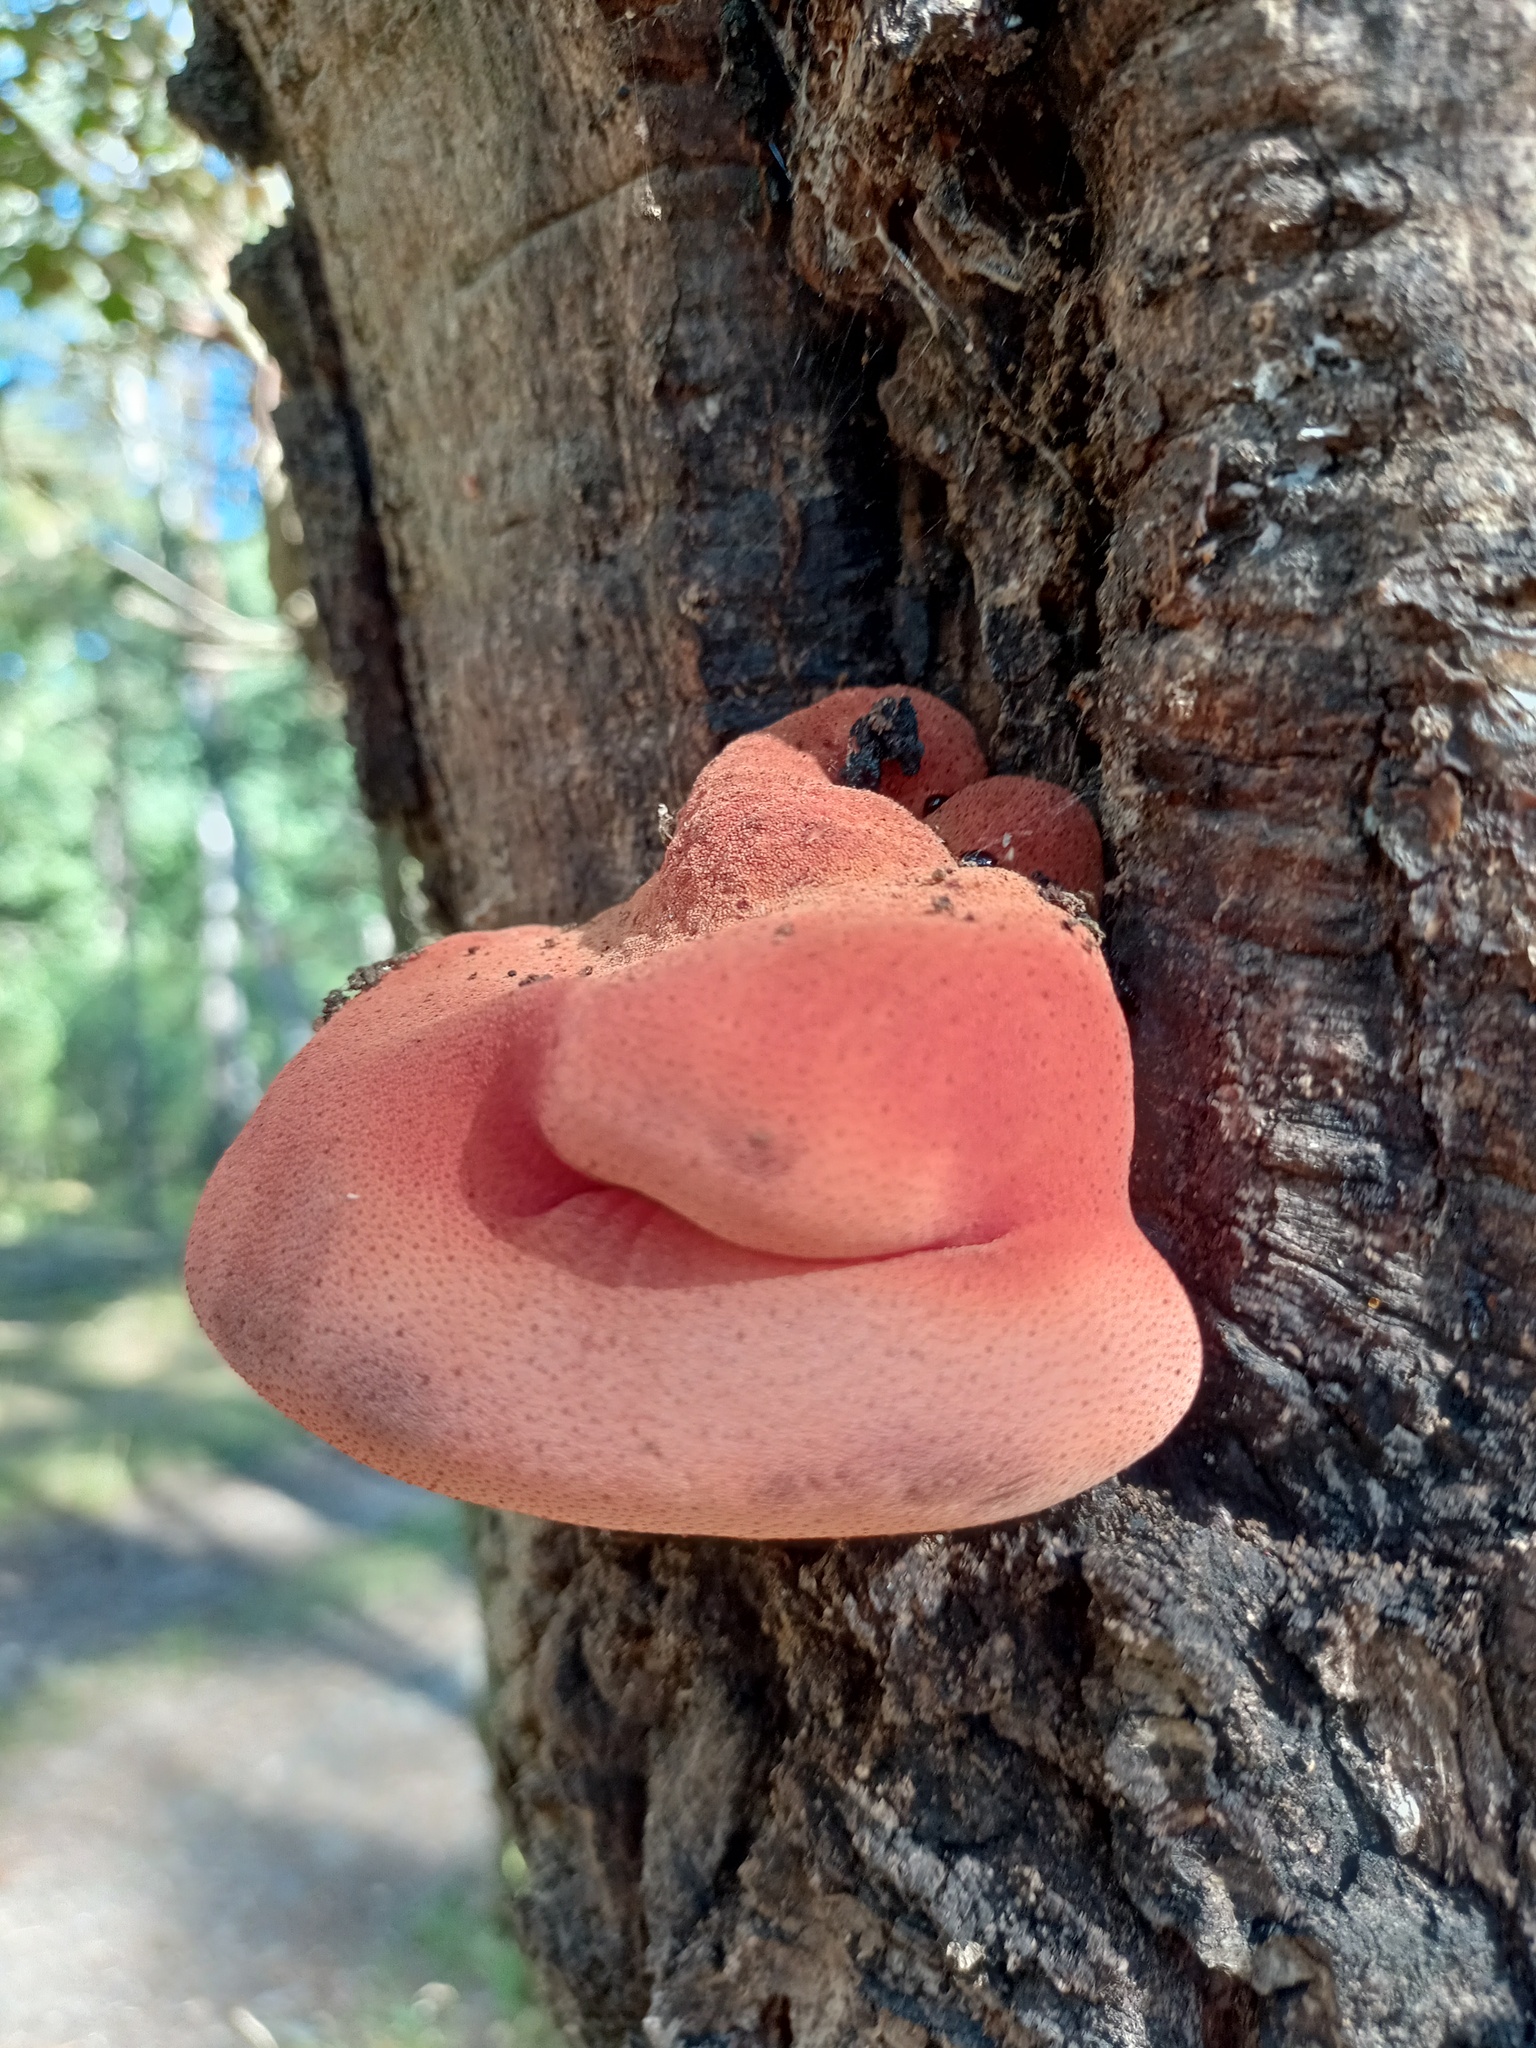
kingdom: Fungi
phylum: Basidiomycota
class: Agaricomycetes
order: Agaricales
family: Fistulinaceae
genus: Fistulina
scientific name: Fistulina hepatica
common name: Beef-steak fungus
